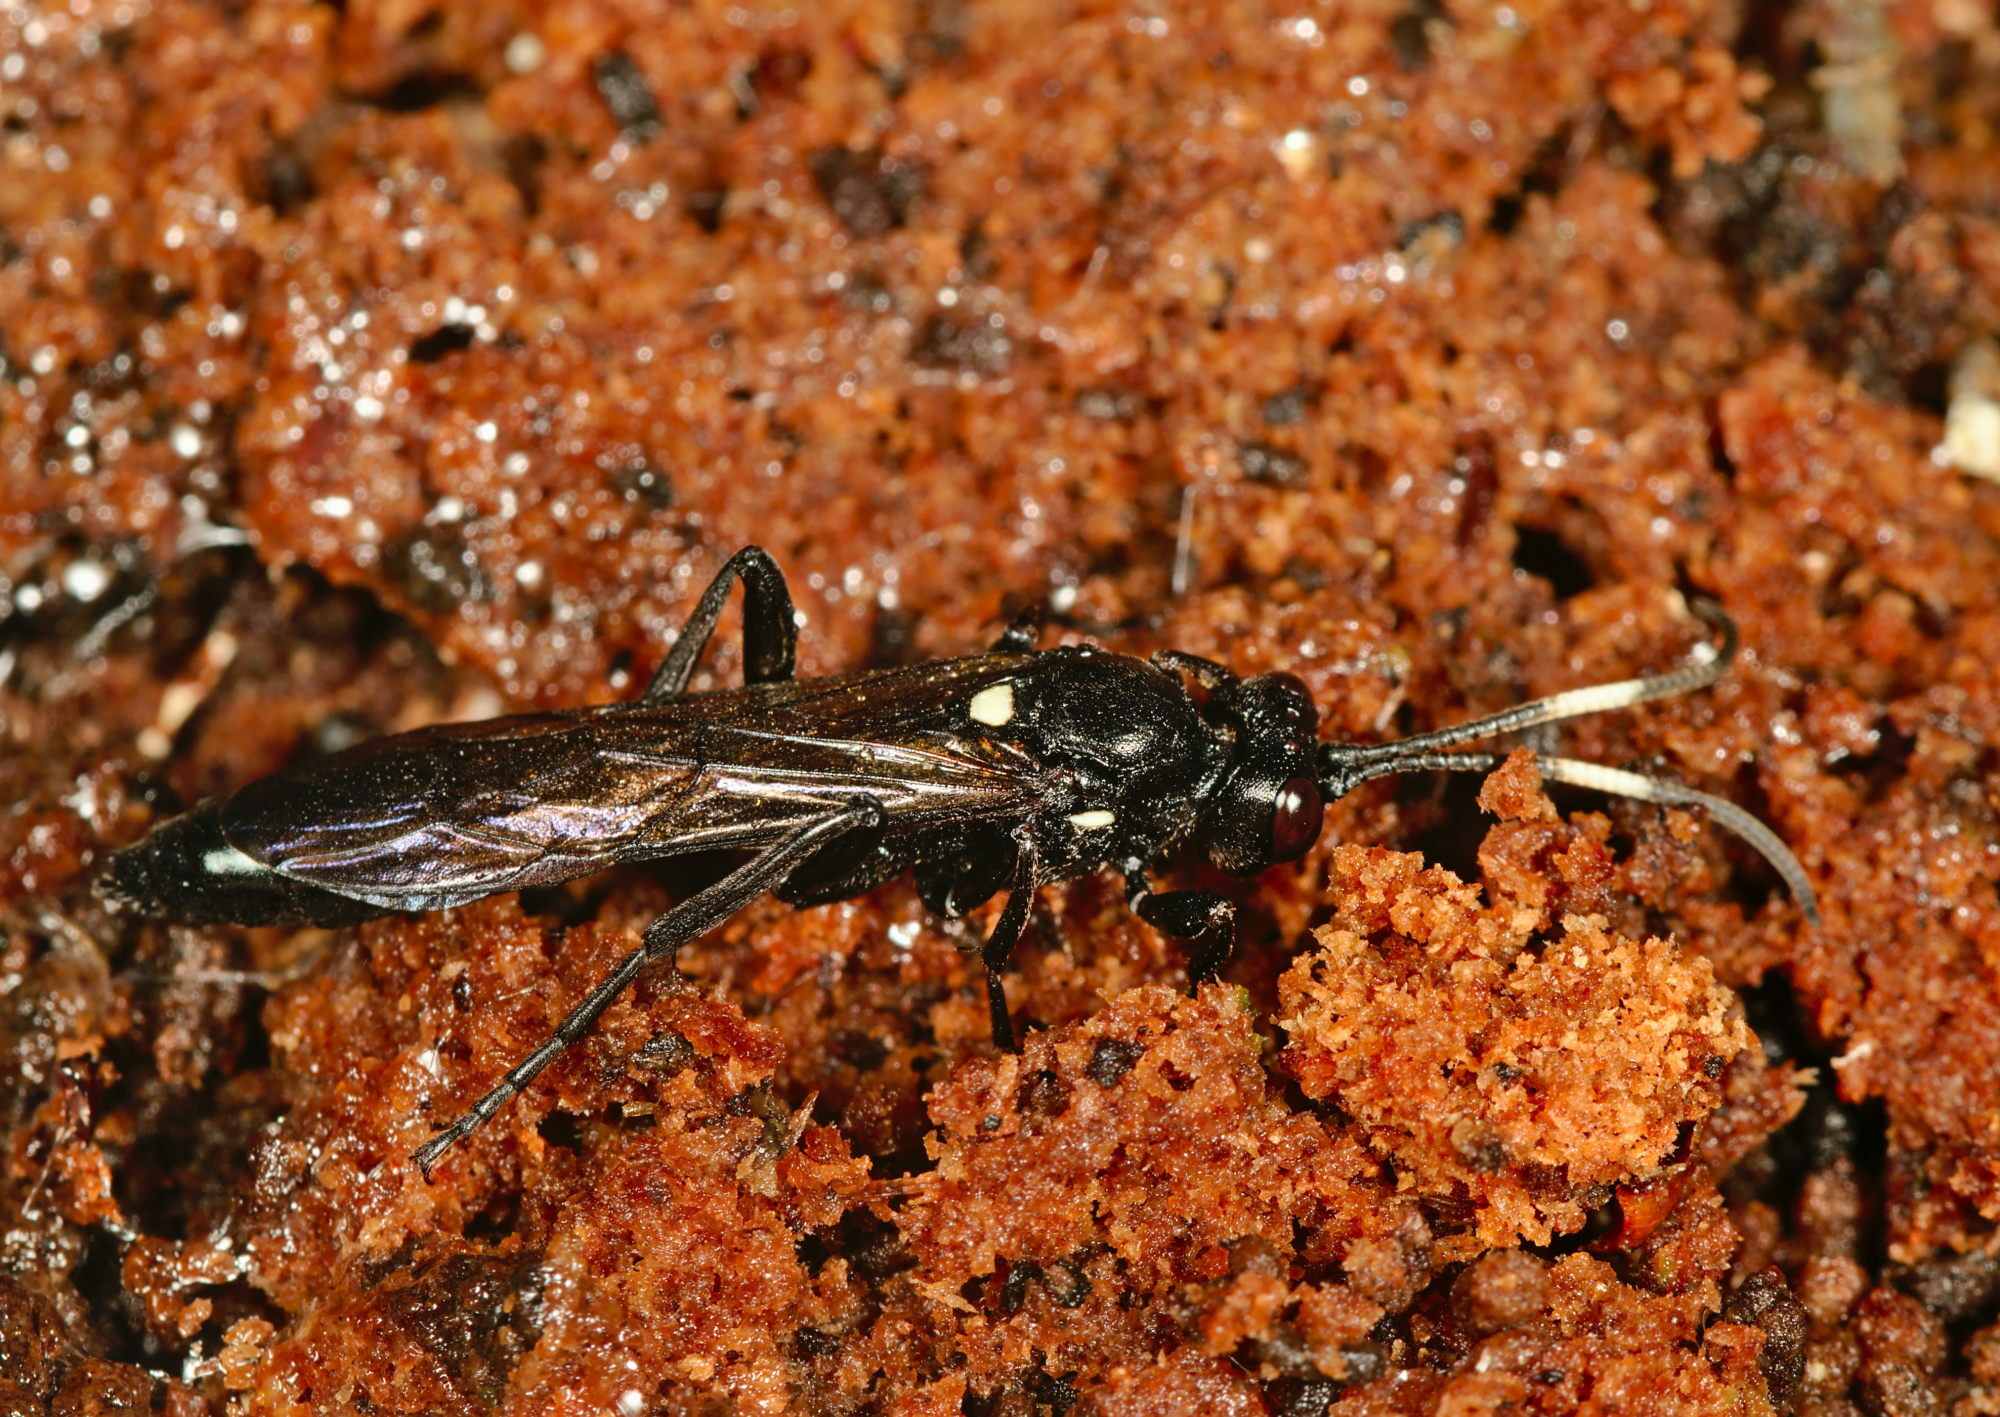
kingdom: Animalia
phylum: Arthropoda
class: Insecta
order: Hymenoptera
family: Ichneumonidae
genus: Ichneumon
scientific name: Ichneumon lugens
